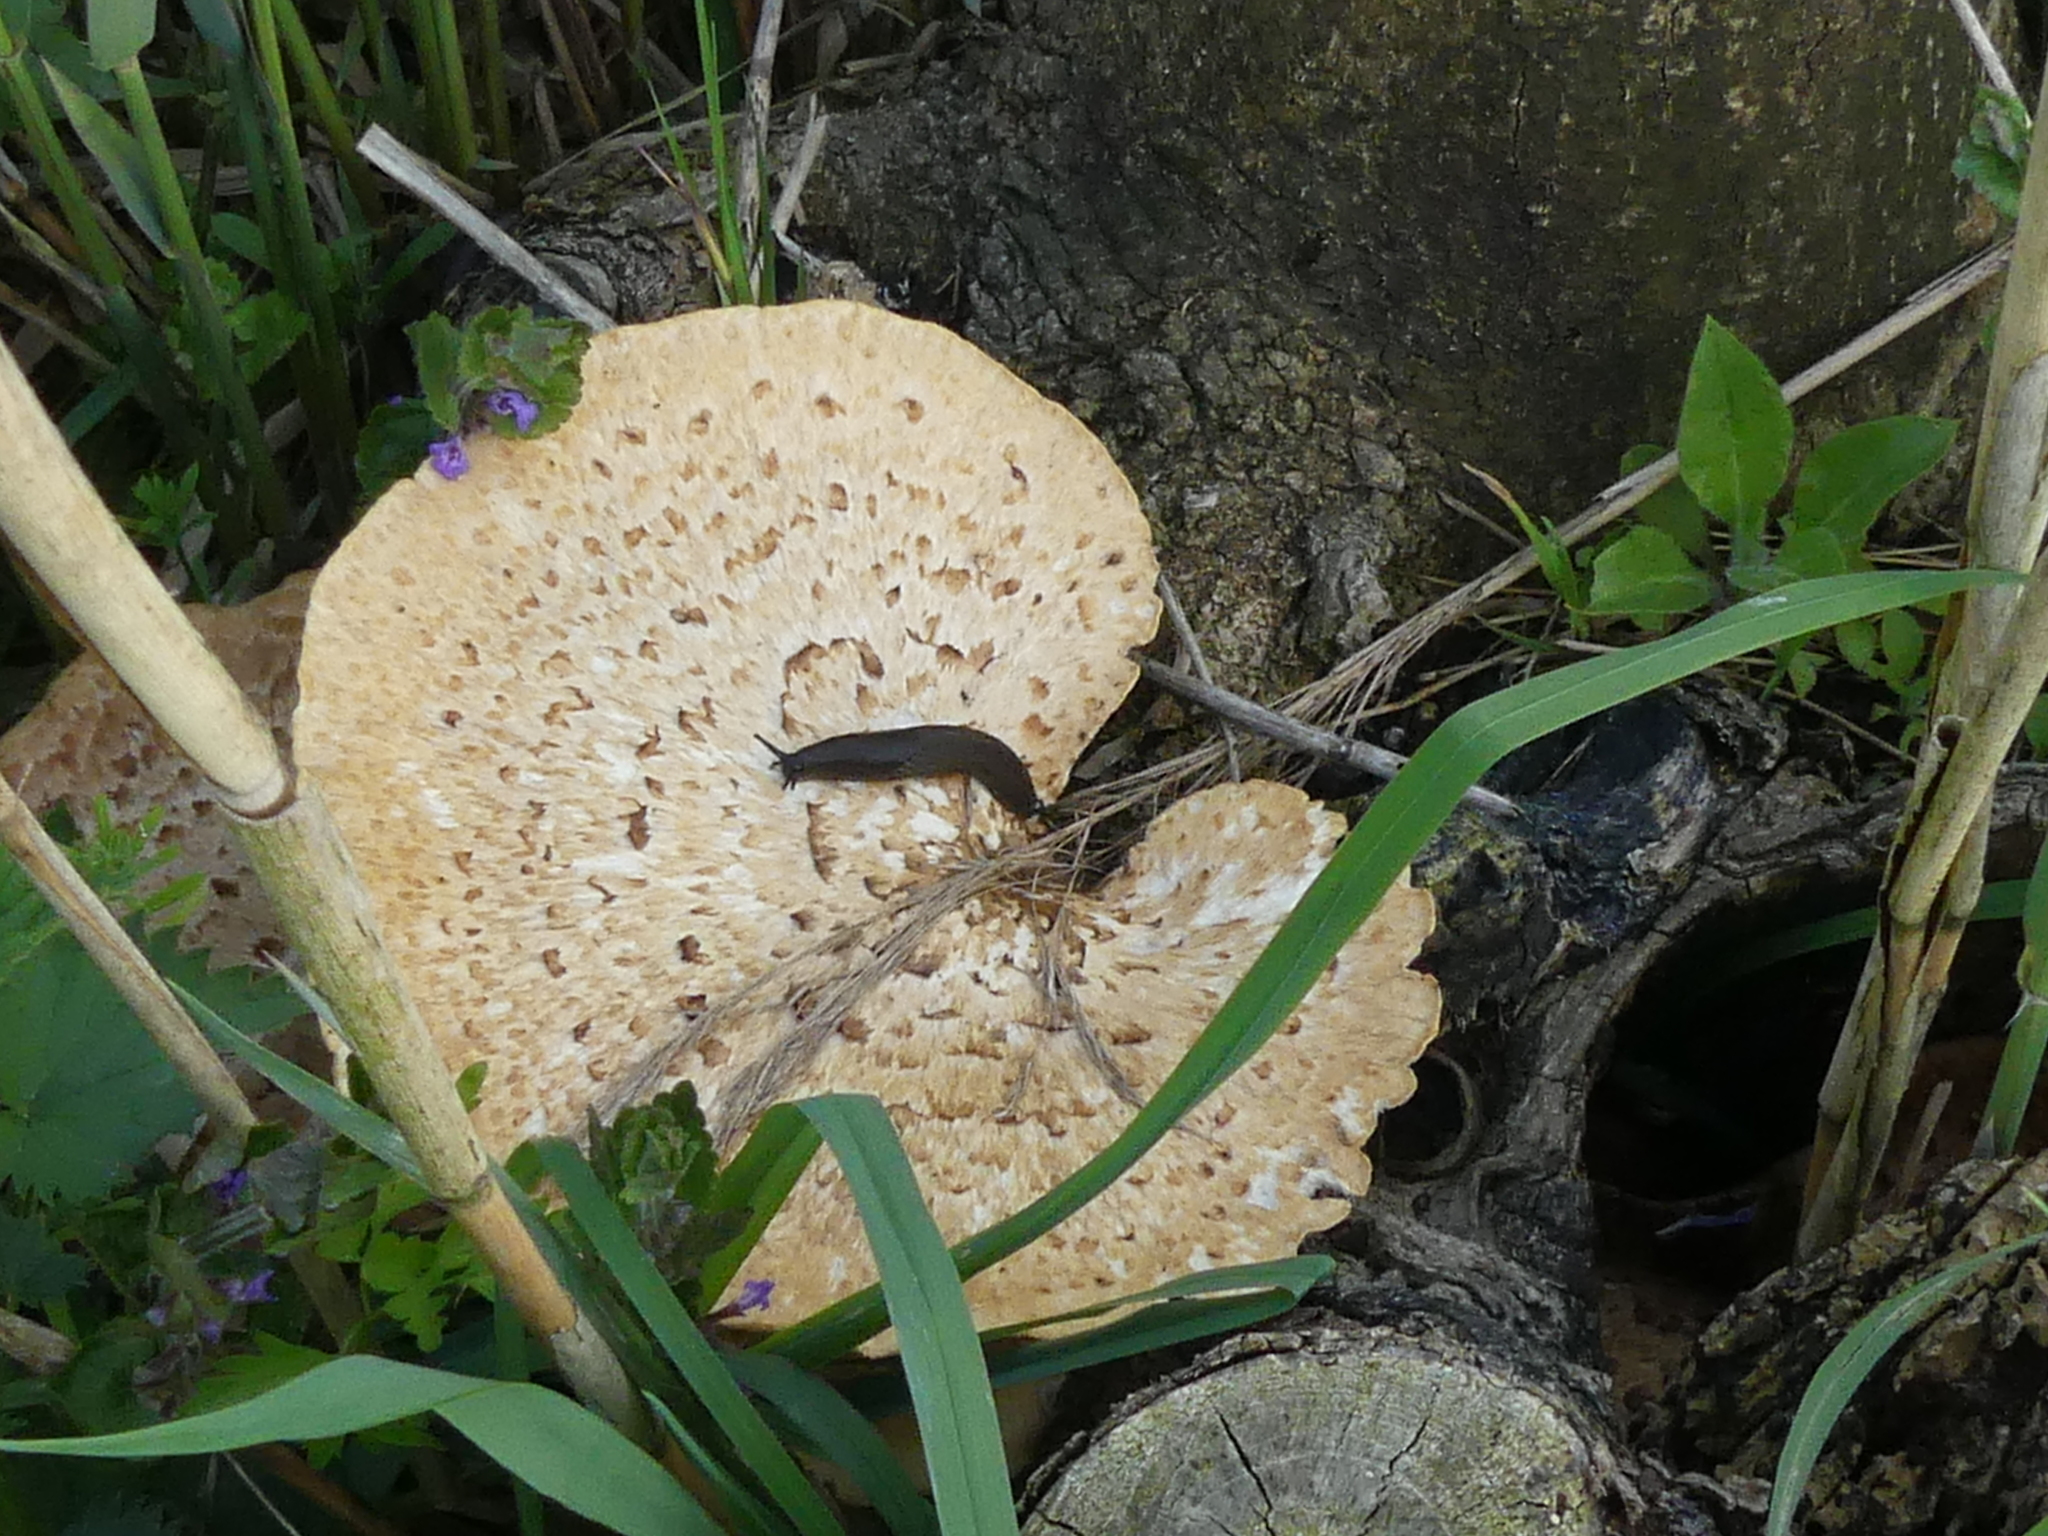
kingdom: Fungi
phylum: Basidiomycota
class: Agaricomycetes
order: Polyporales
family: Polyporaceae
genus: Cerioporus
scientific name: Cerioporus squamosus
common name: Dryad's saddle
